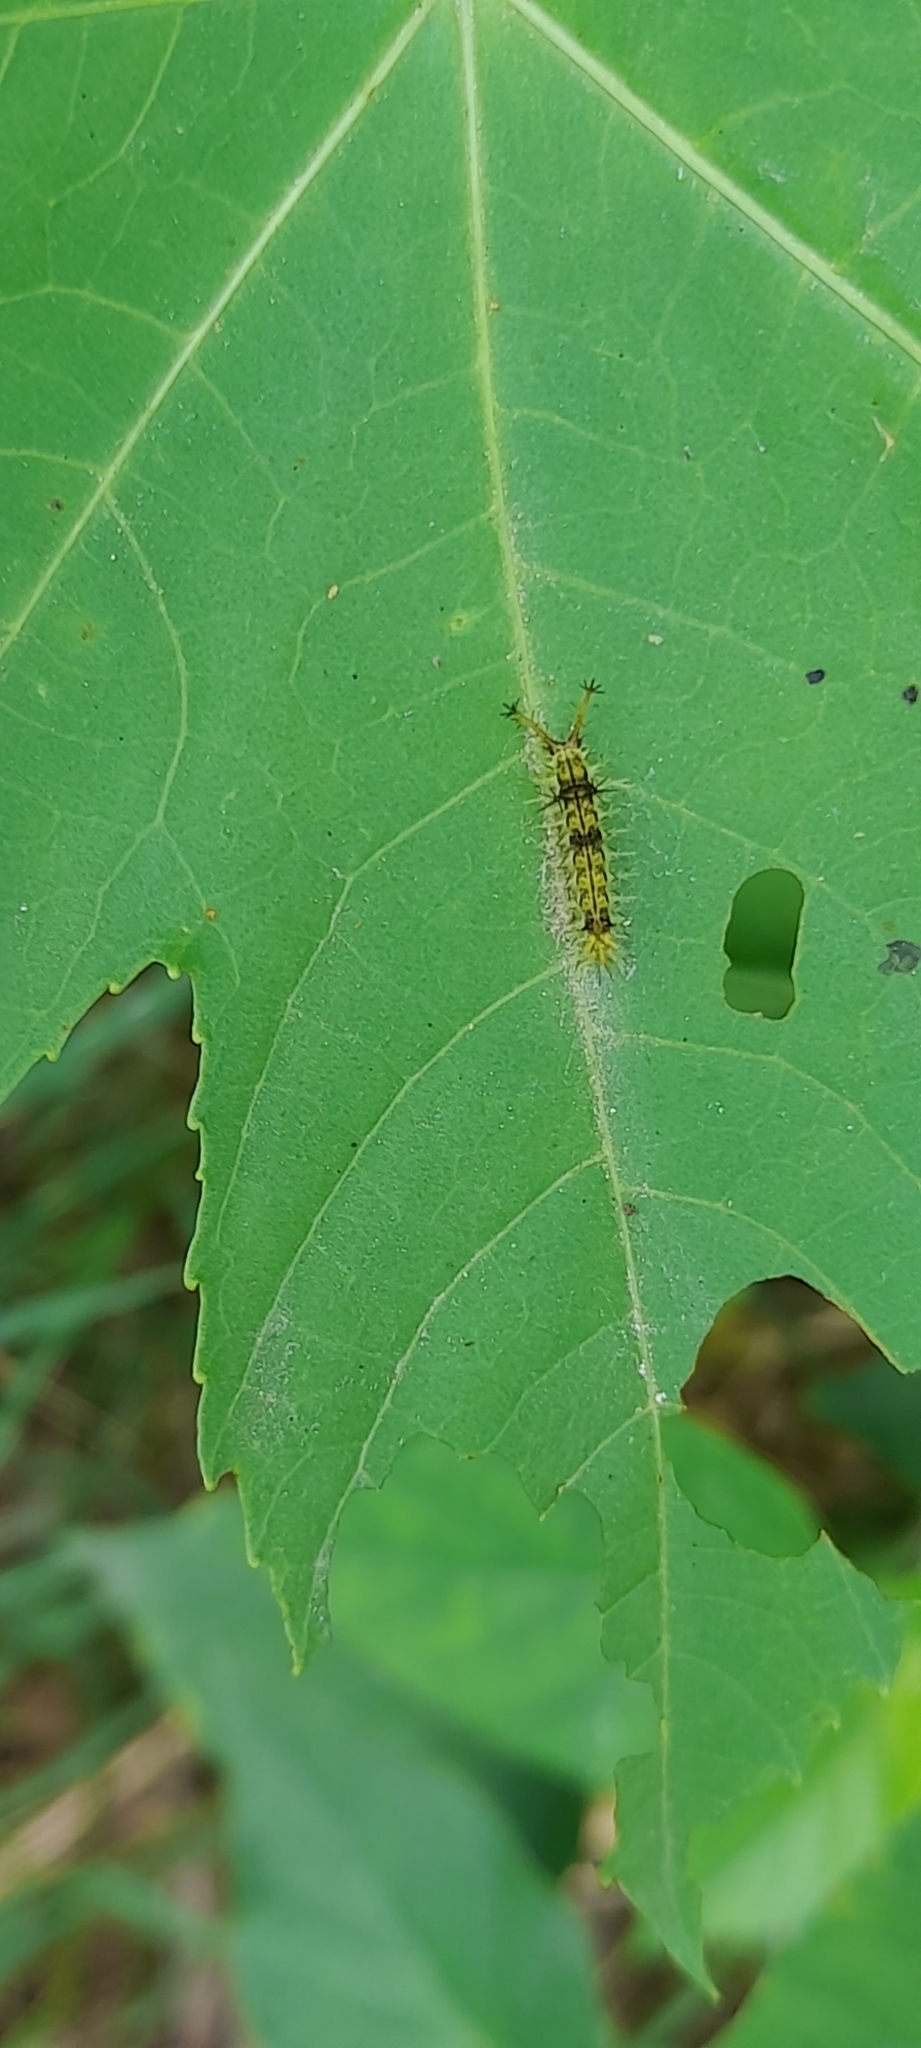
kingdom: Animalia
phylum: Arthropoda
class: Insecta
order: Lepidoptera
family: Nymphalidae
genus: Ariadne
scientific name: Ariadne merione
